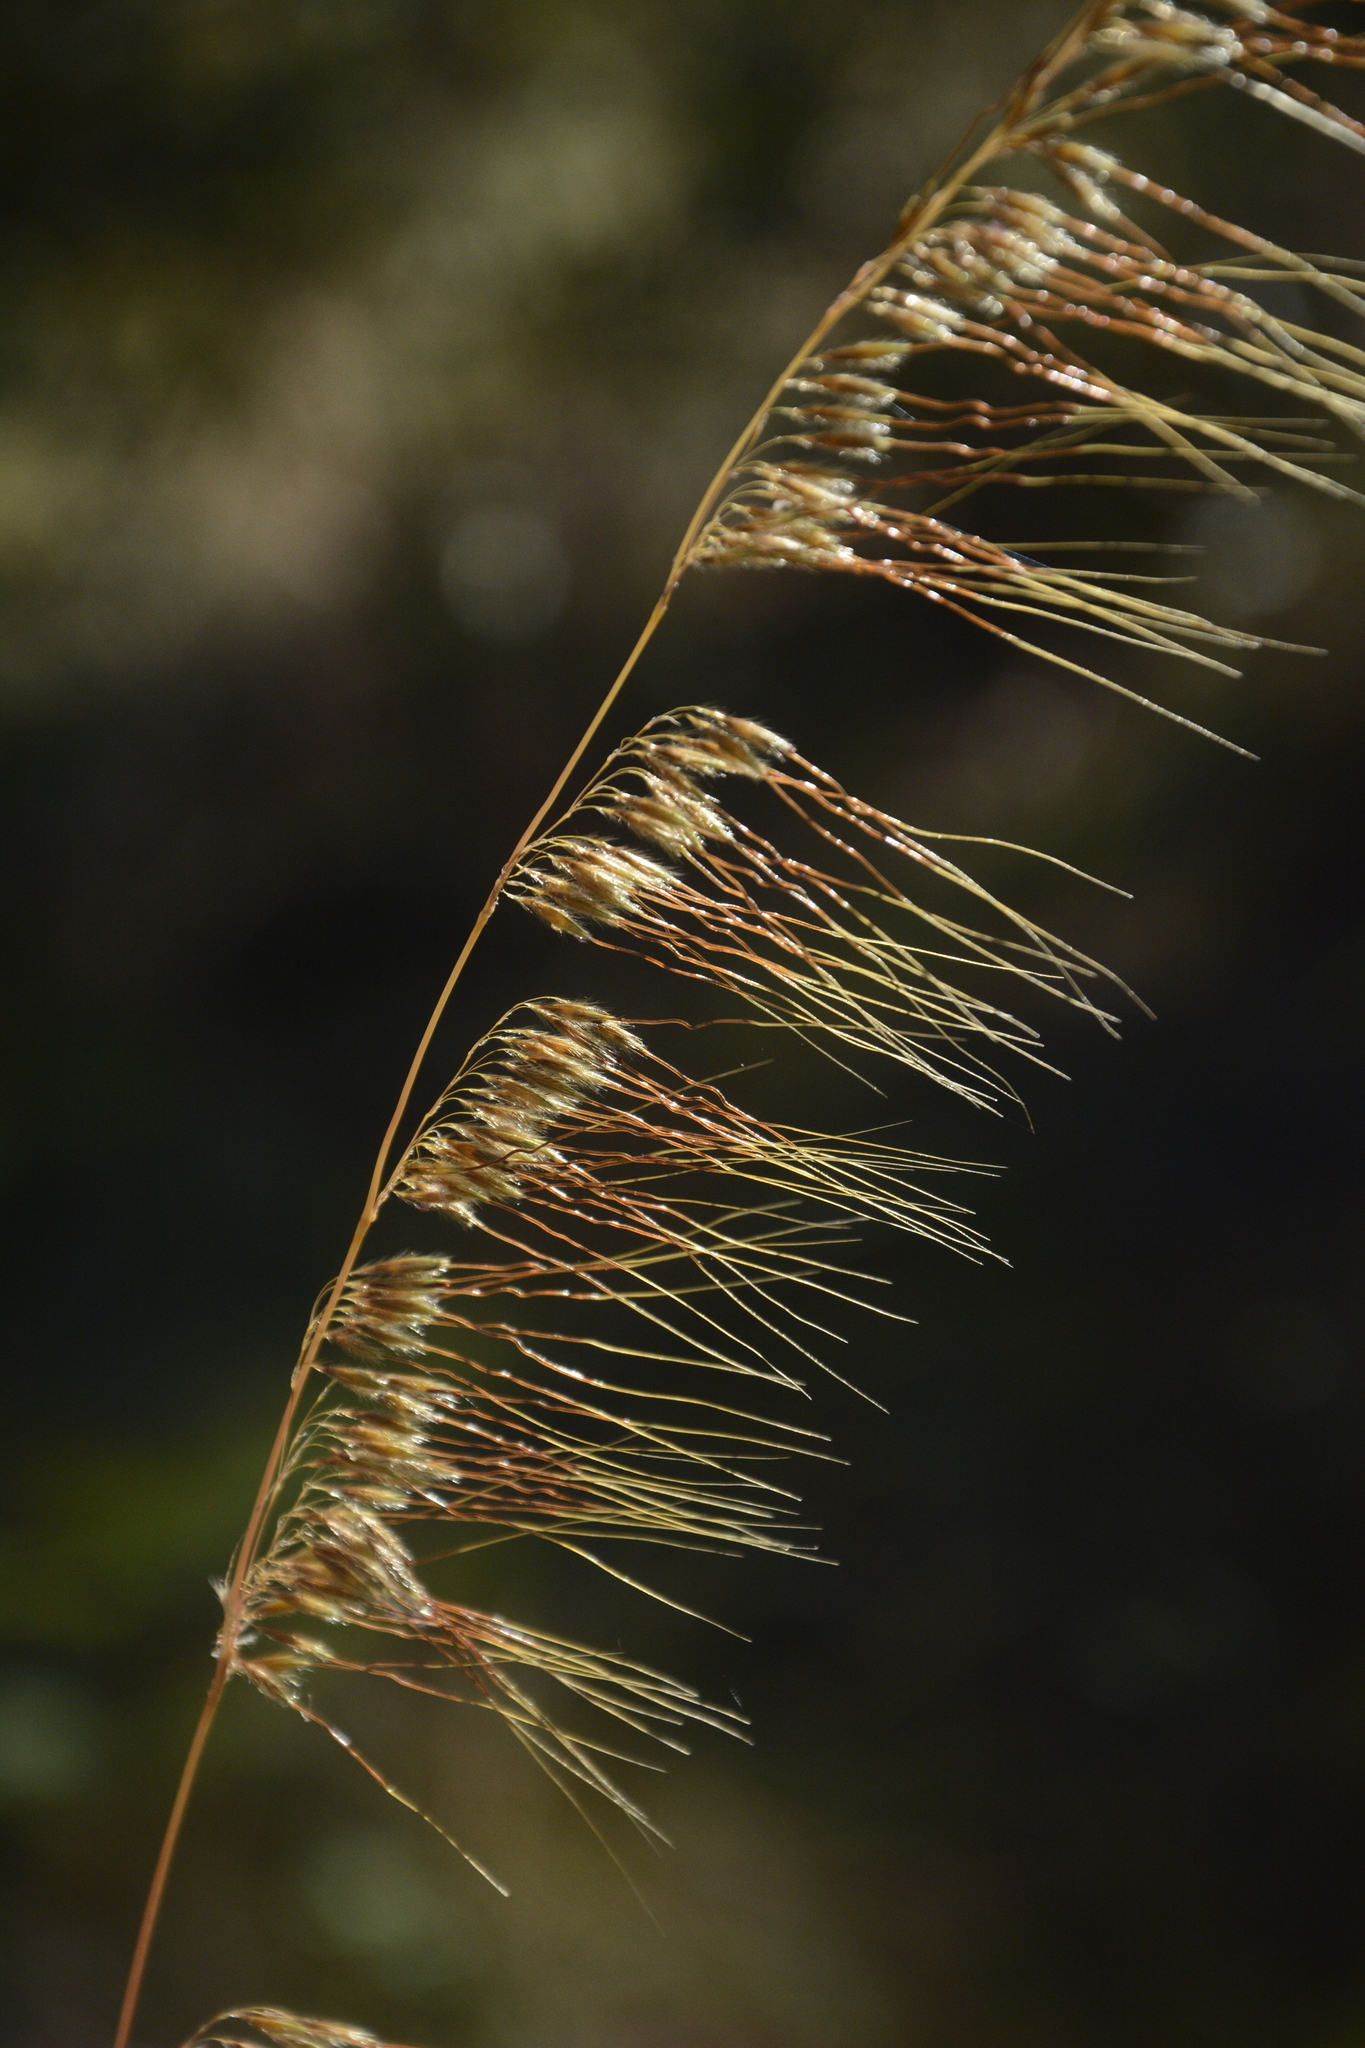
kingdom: Plantae
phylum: Tracheophyta
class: Liliopsida
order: Poales
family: Poaceae
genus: Sorghastrum
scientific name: Sorghastrum secundum
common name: Lopsided indian grass
